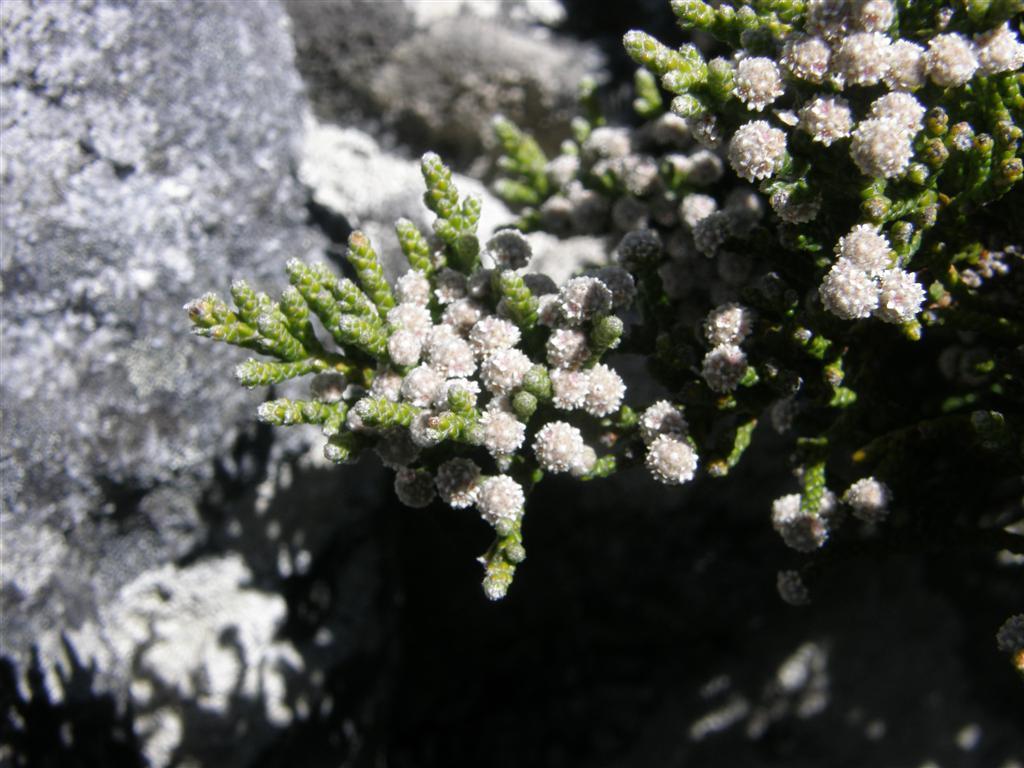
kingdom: Plantae
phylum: Tracheophyta
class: Magnoliopsida
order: Bruniales
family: Bruniaceae
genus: Brunia
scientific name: Brunia microphylla
